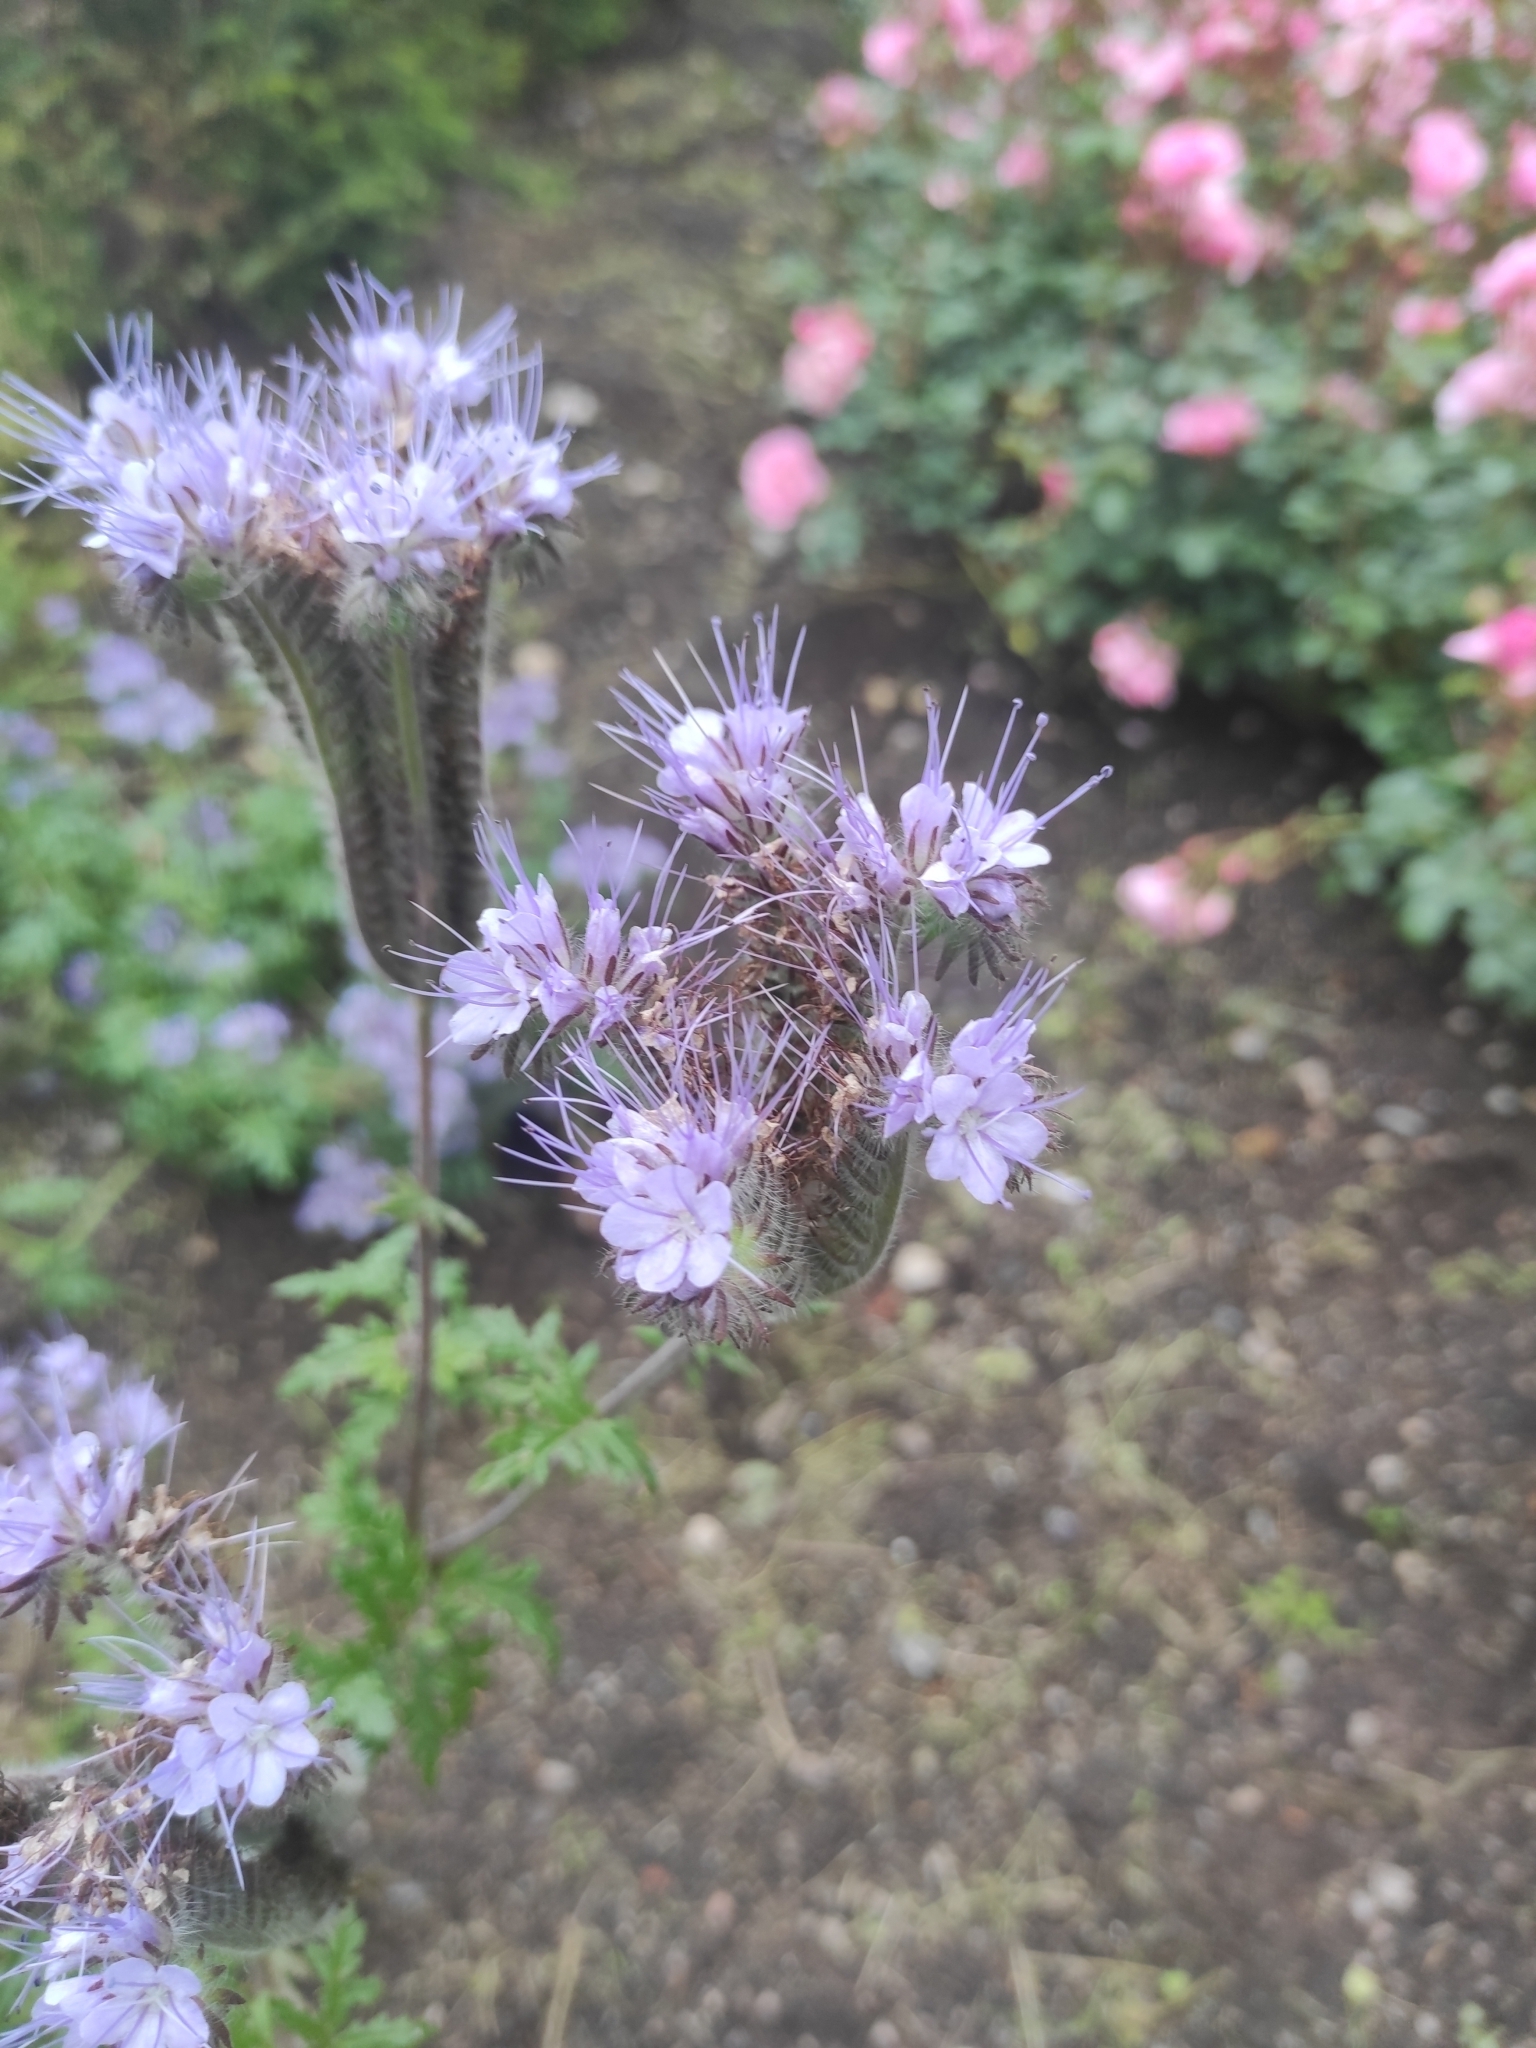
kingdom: Plantae
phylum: Tracheophyta
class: Magnoliopsida
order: Boraginales
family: Hydrophyllaceae
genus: Phacelia
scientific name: Phacelia tanacetifolia
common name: Phacelia
